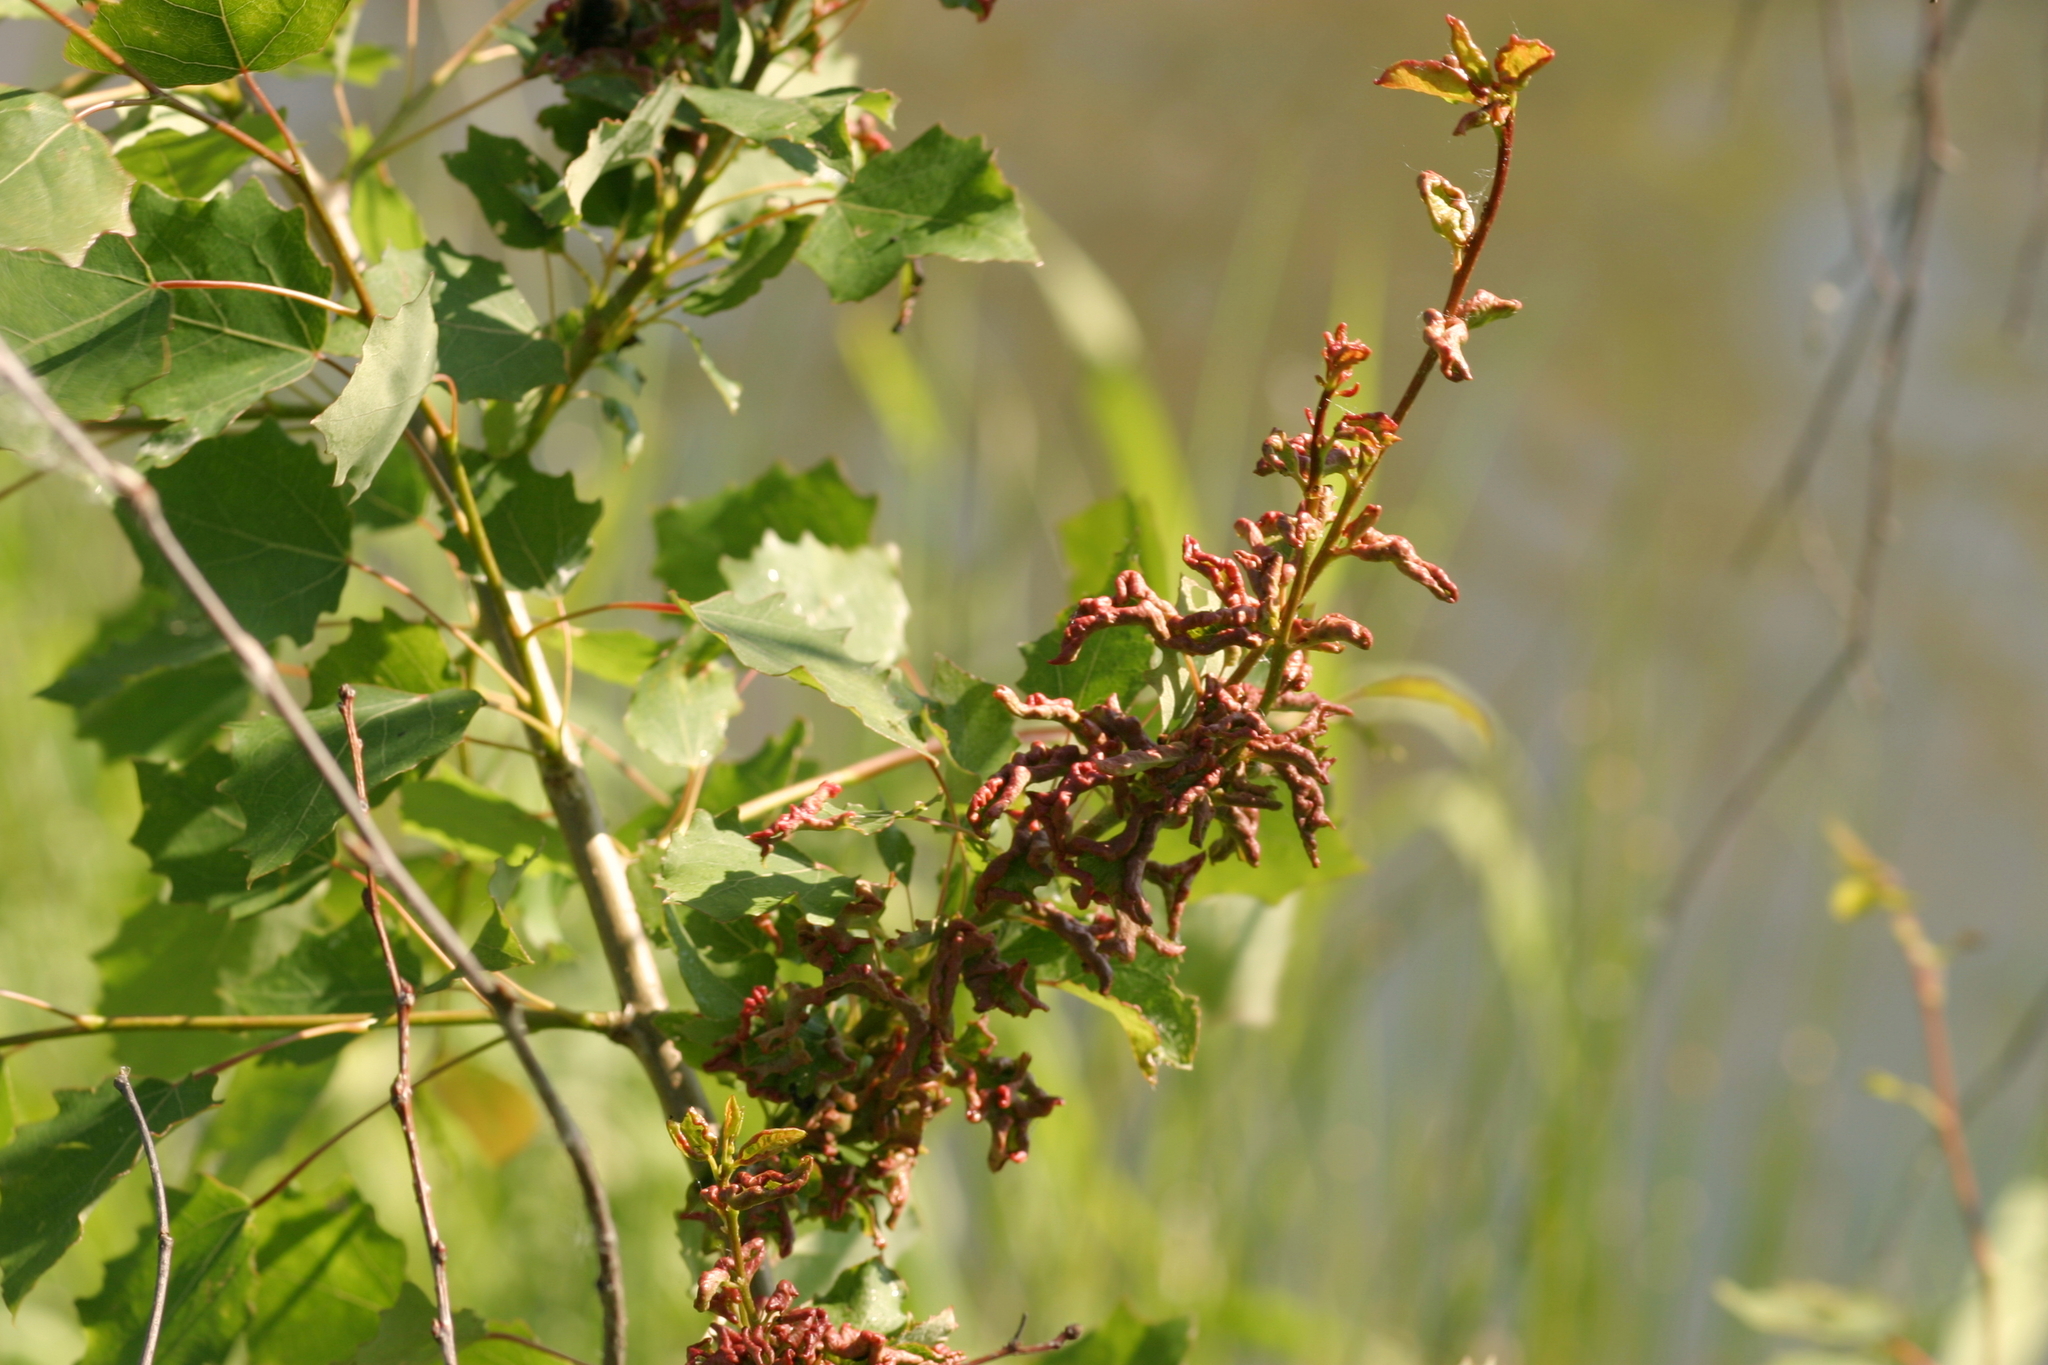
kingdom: Animalia
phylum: Arthropoda
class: Arachnida
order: Trombidiformes
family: Eriophyidae
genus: Aceria
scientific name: Aceria dispar
